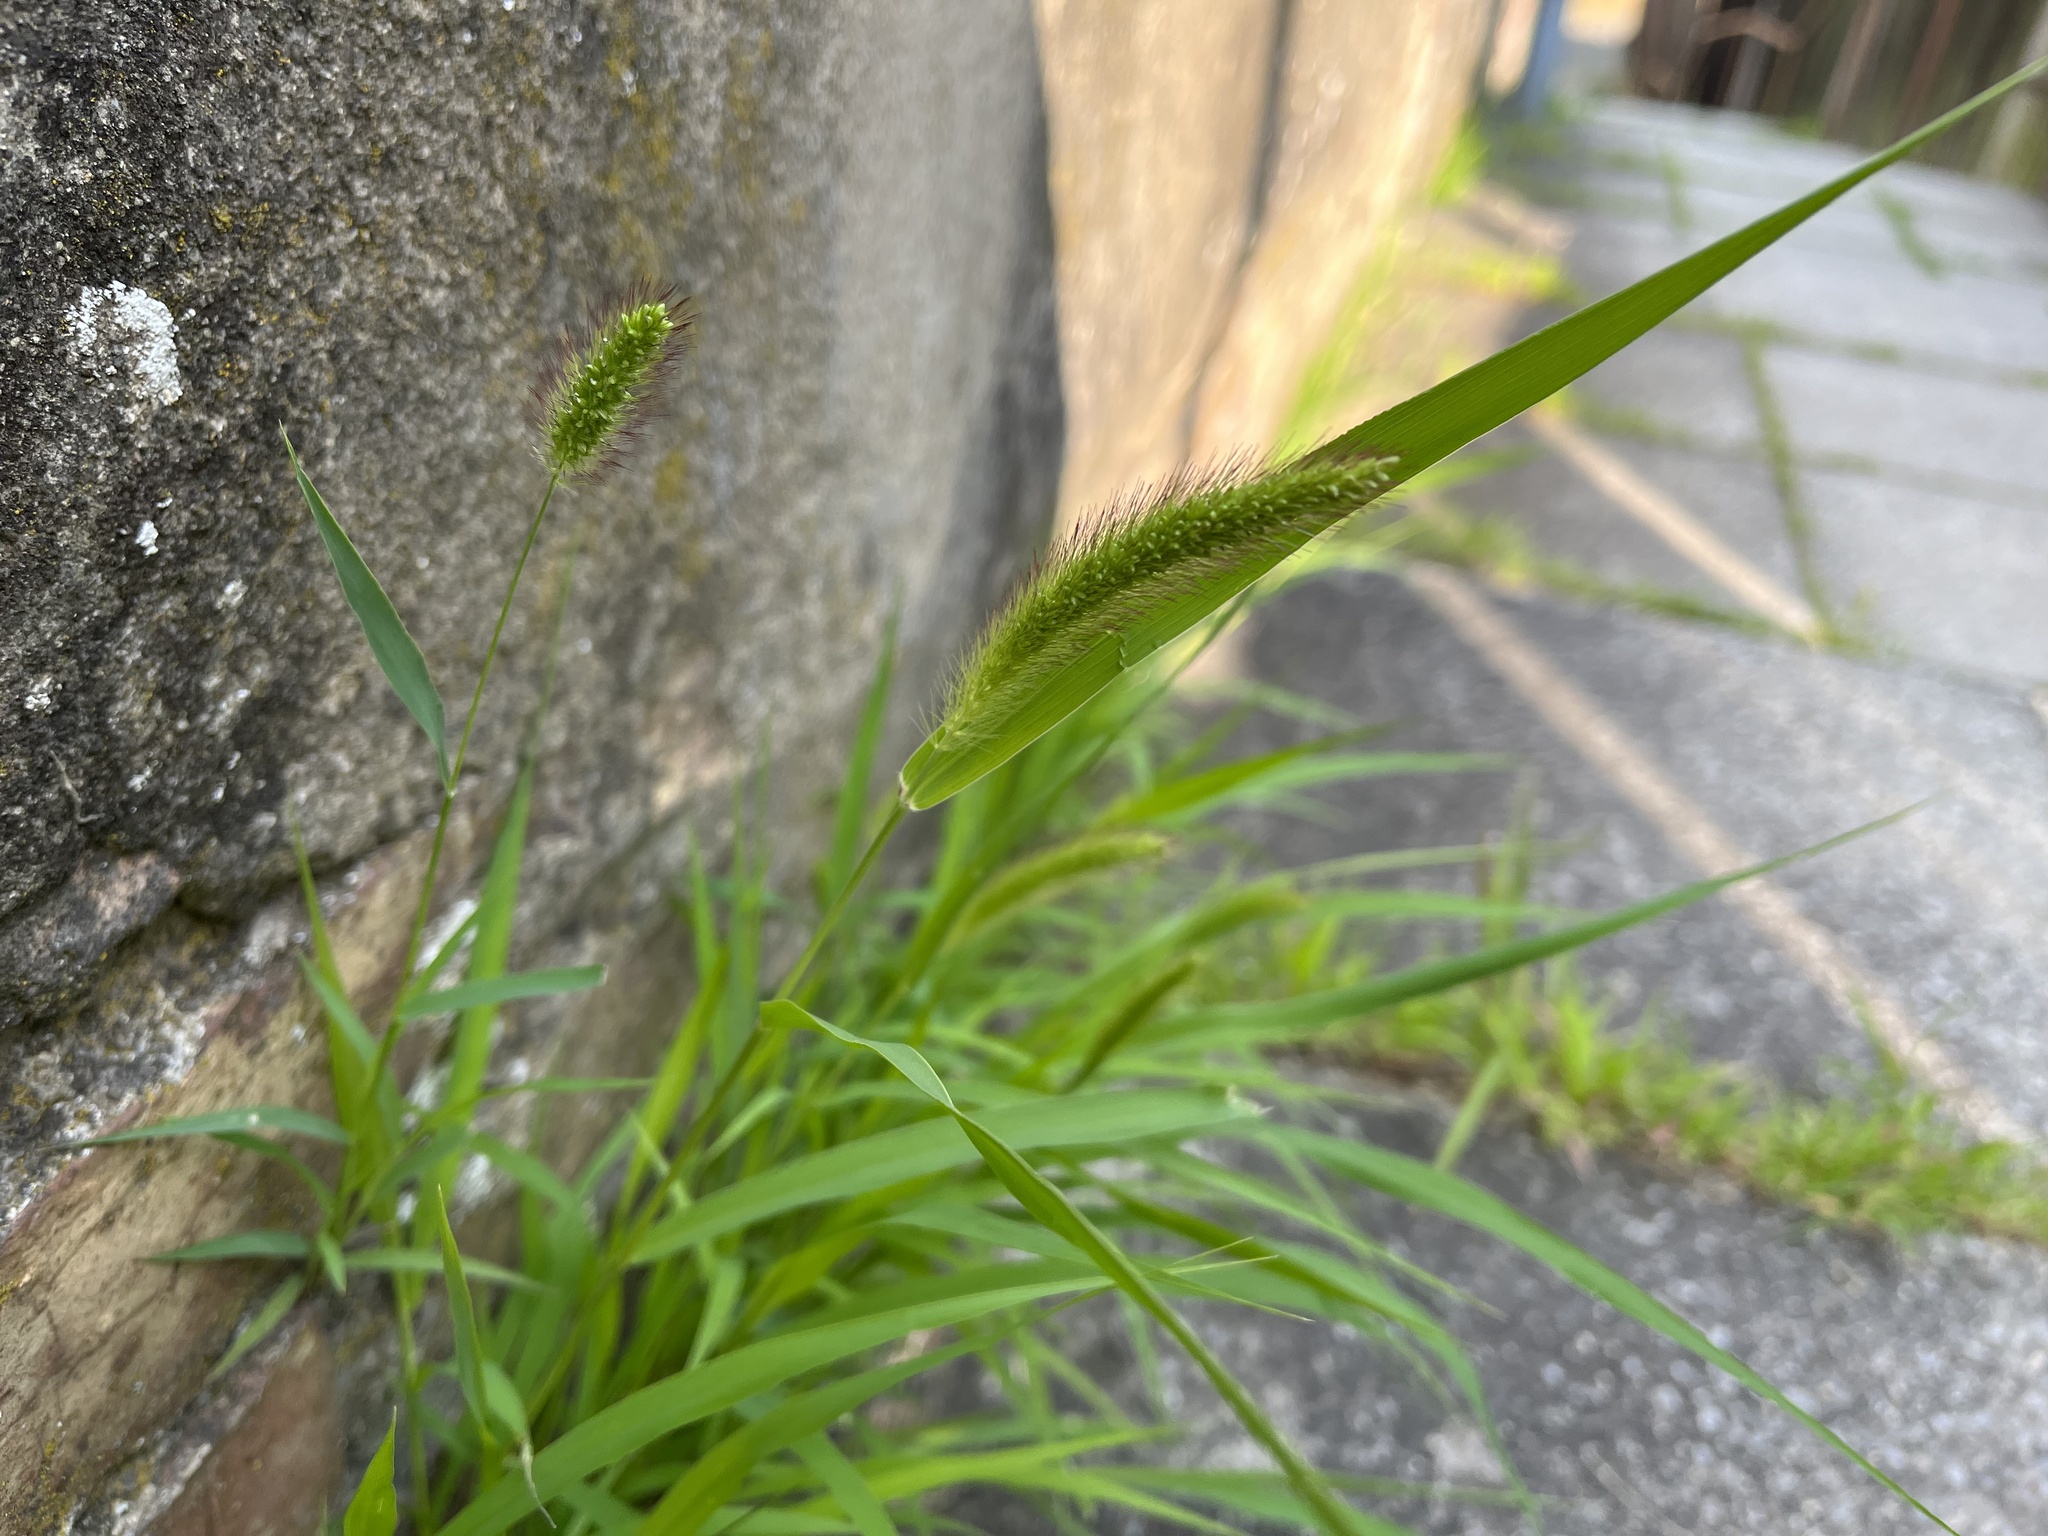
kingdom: Plantae
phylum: Tracheophyta
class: Liliopsida
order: Poales
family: Poaceae
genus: Setaria
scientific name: Setaria viridis
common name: Green bristlegrass
